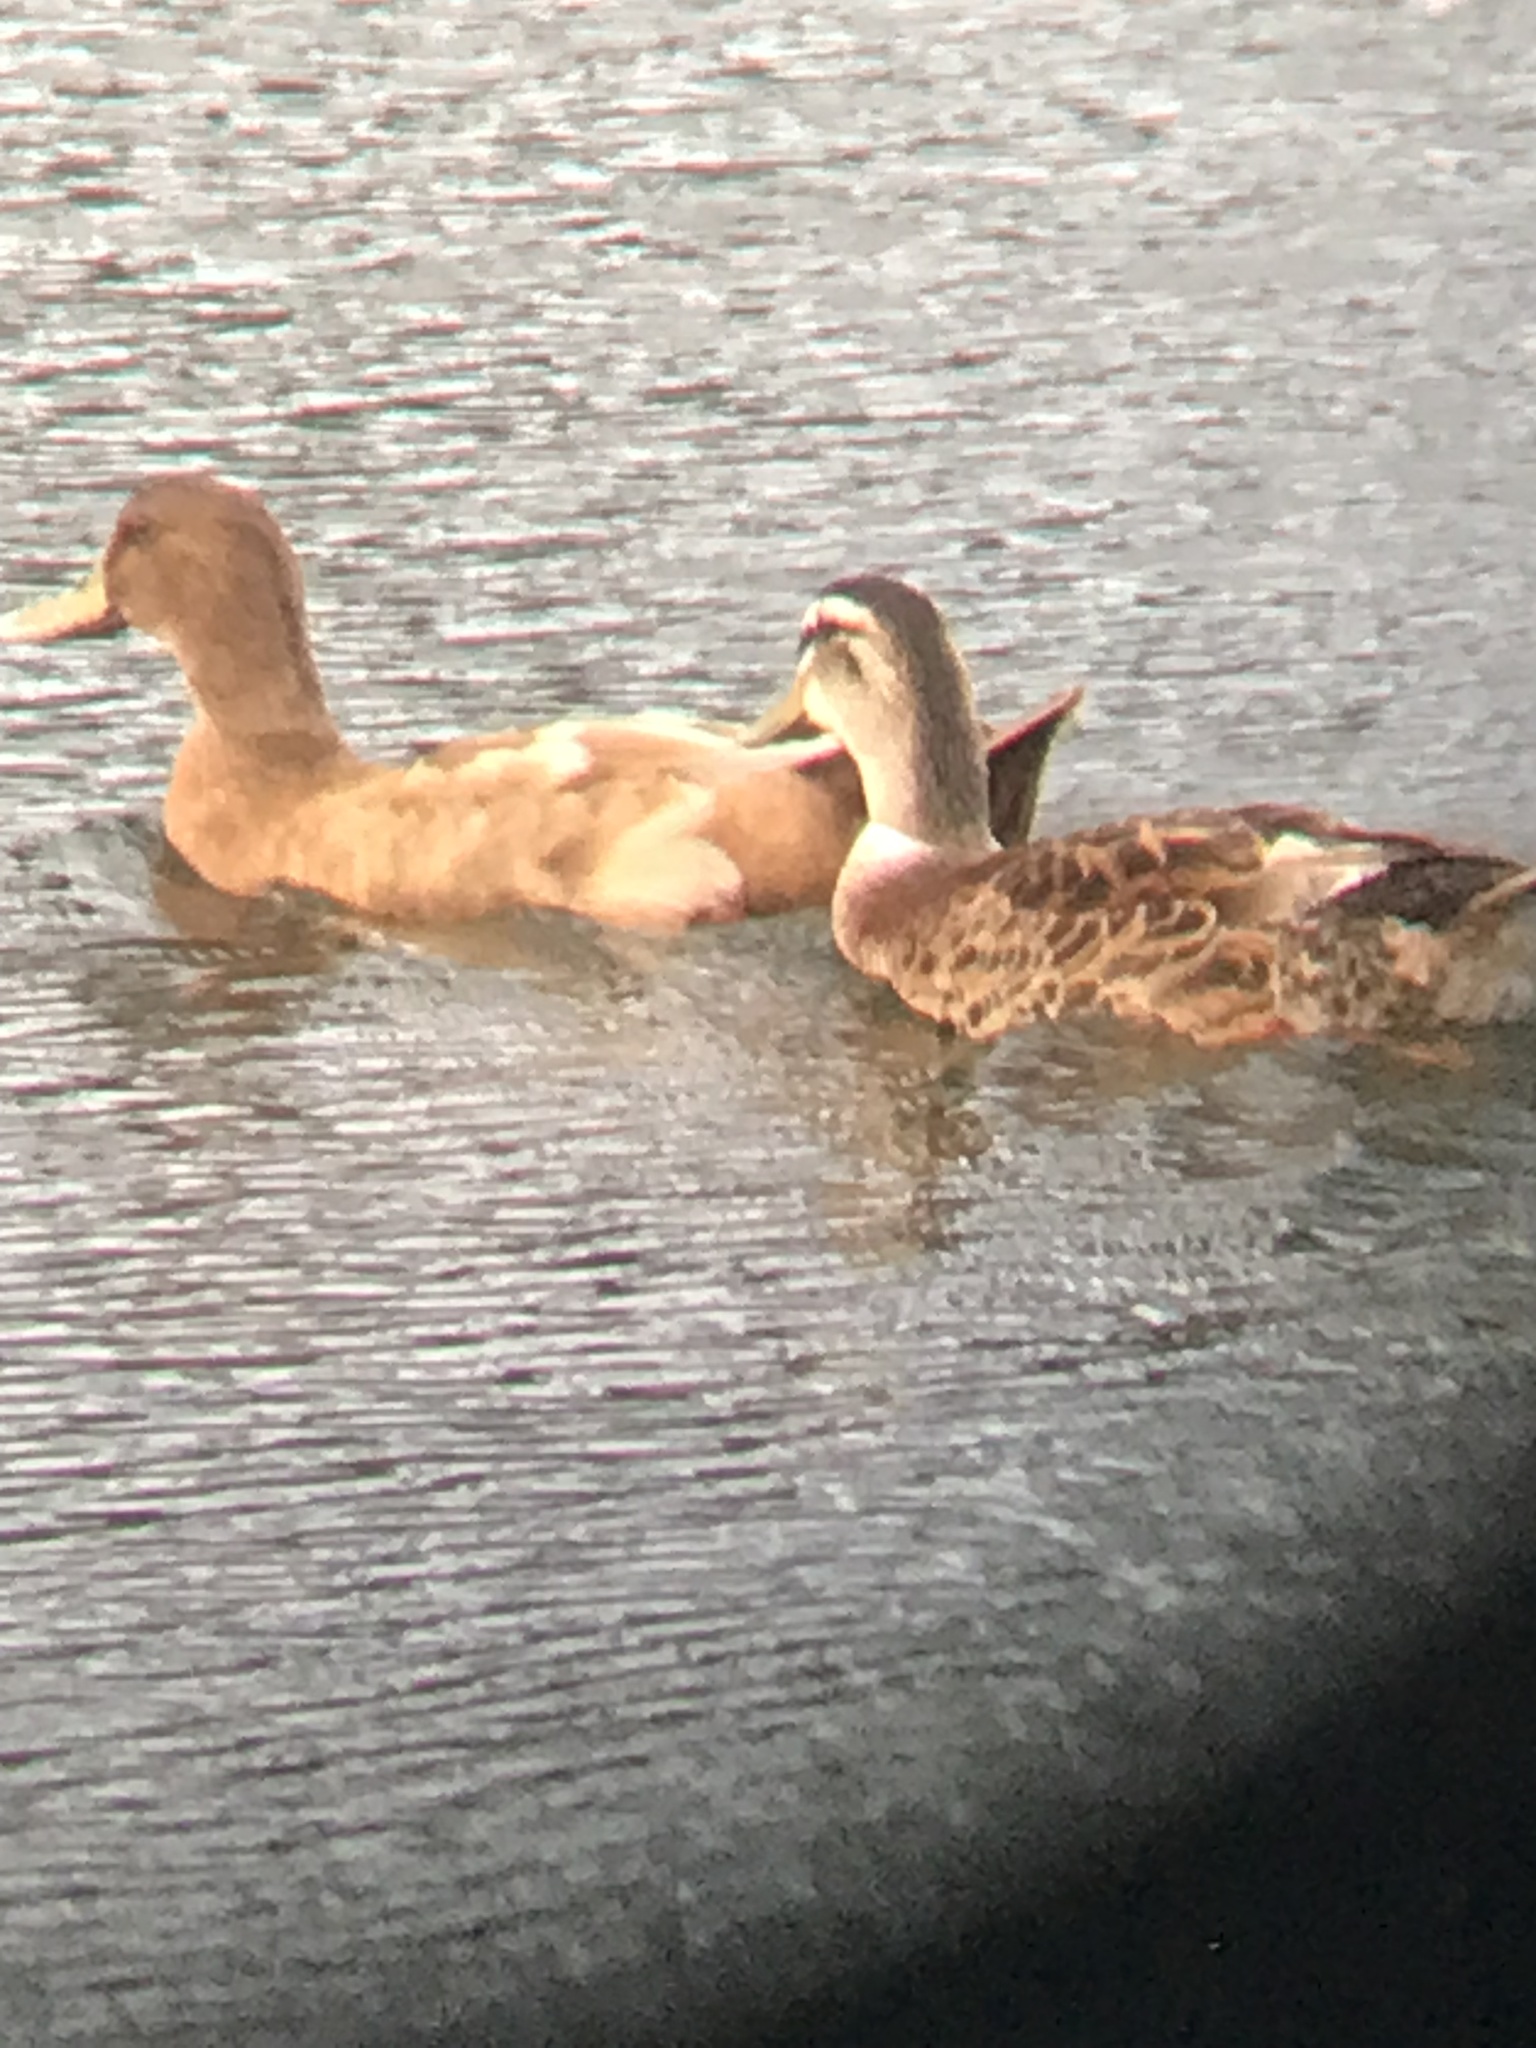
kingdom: Animalia
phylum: Chordata
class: Aves
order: Anseriformes
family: Anatidae
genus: Anas
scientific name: Anas platyrhynchos
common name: Mallard
